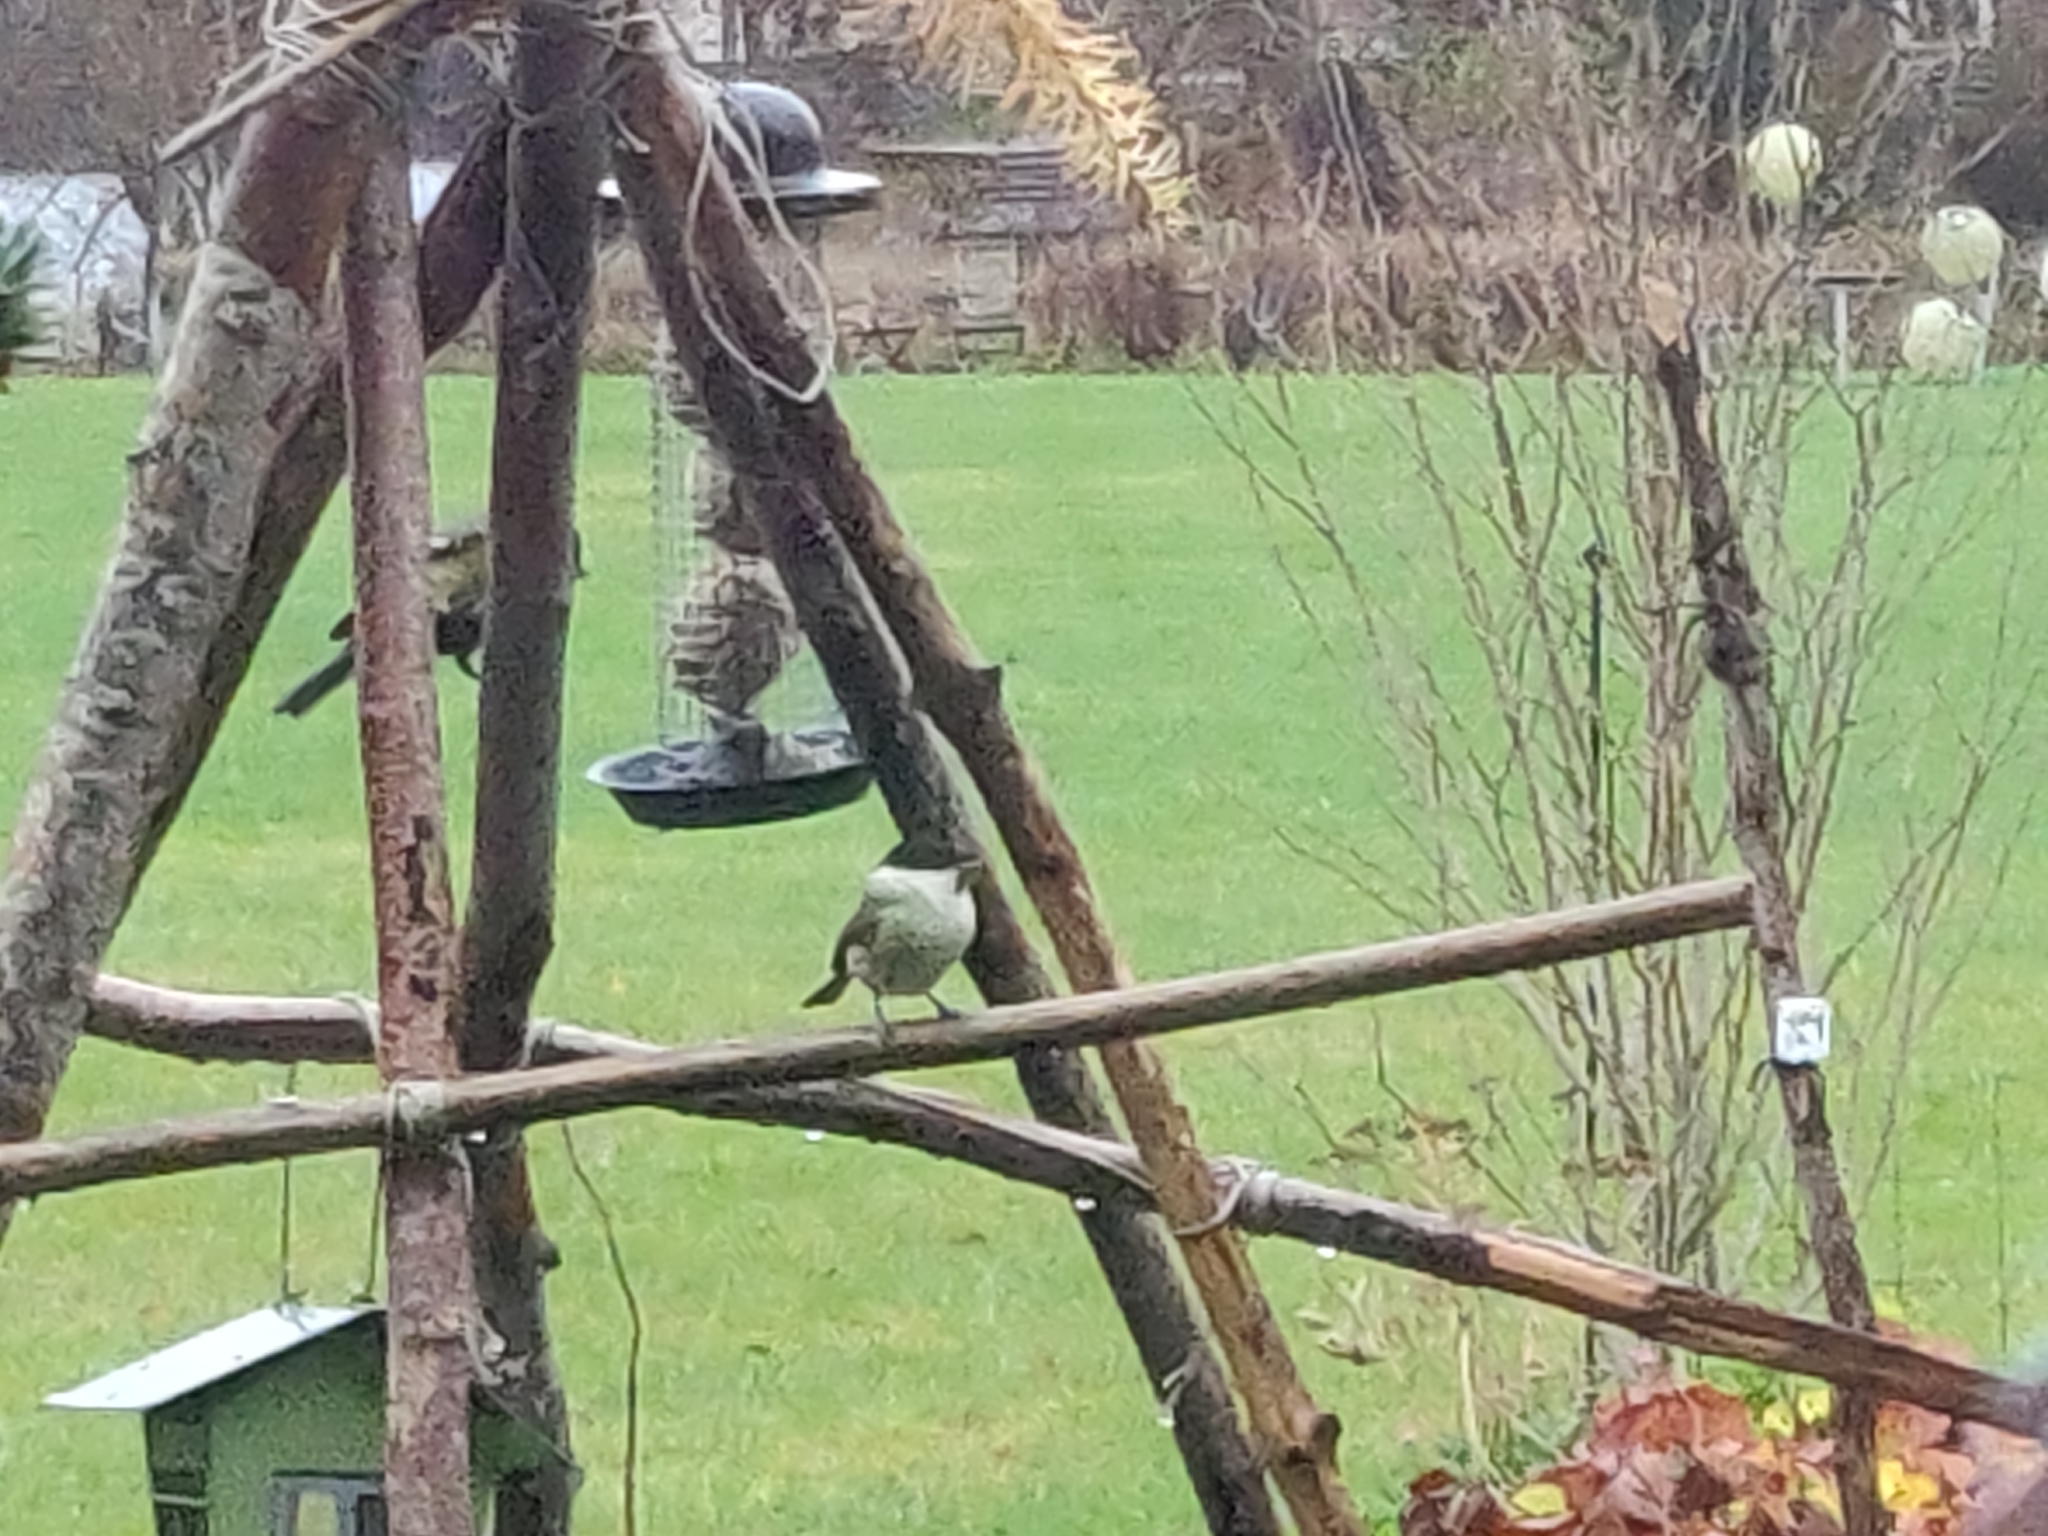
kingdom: Animalia
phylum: Chordata
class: Aves
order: Passeriformes
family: Paridae
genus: Poecile
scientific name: Poecile palustris
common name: Marsh tit
